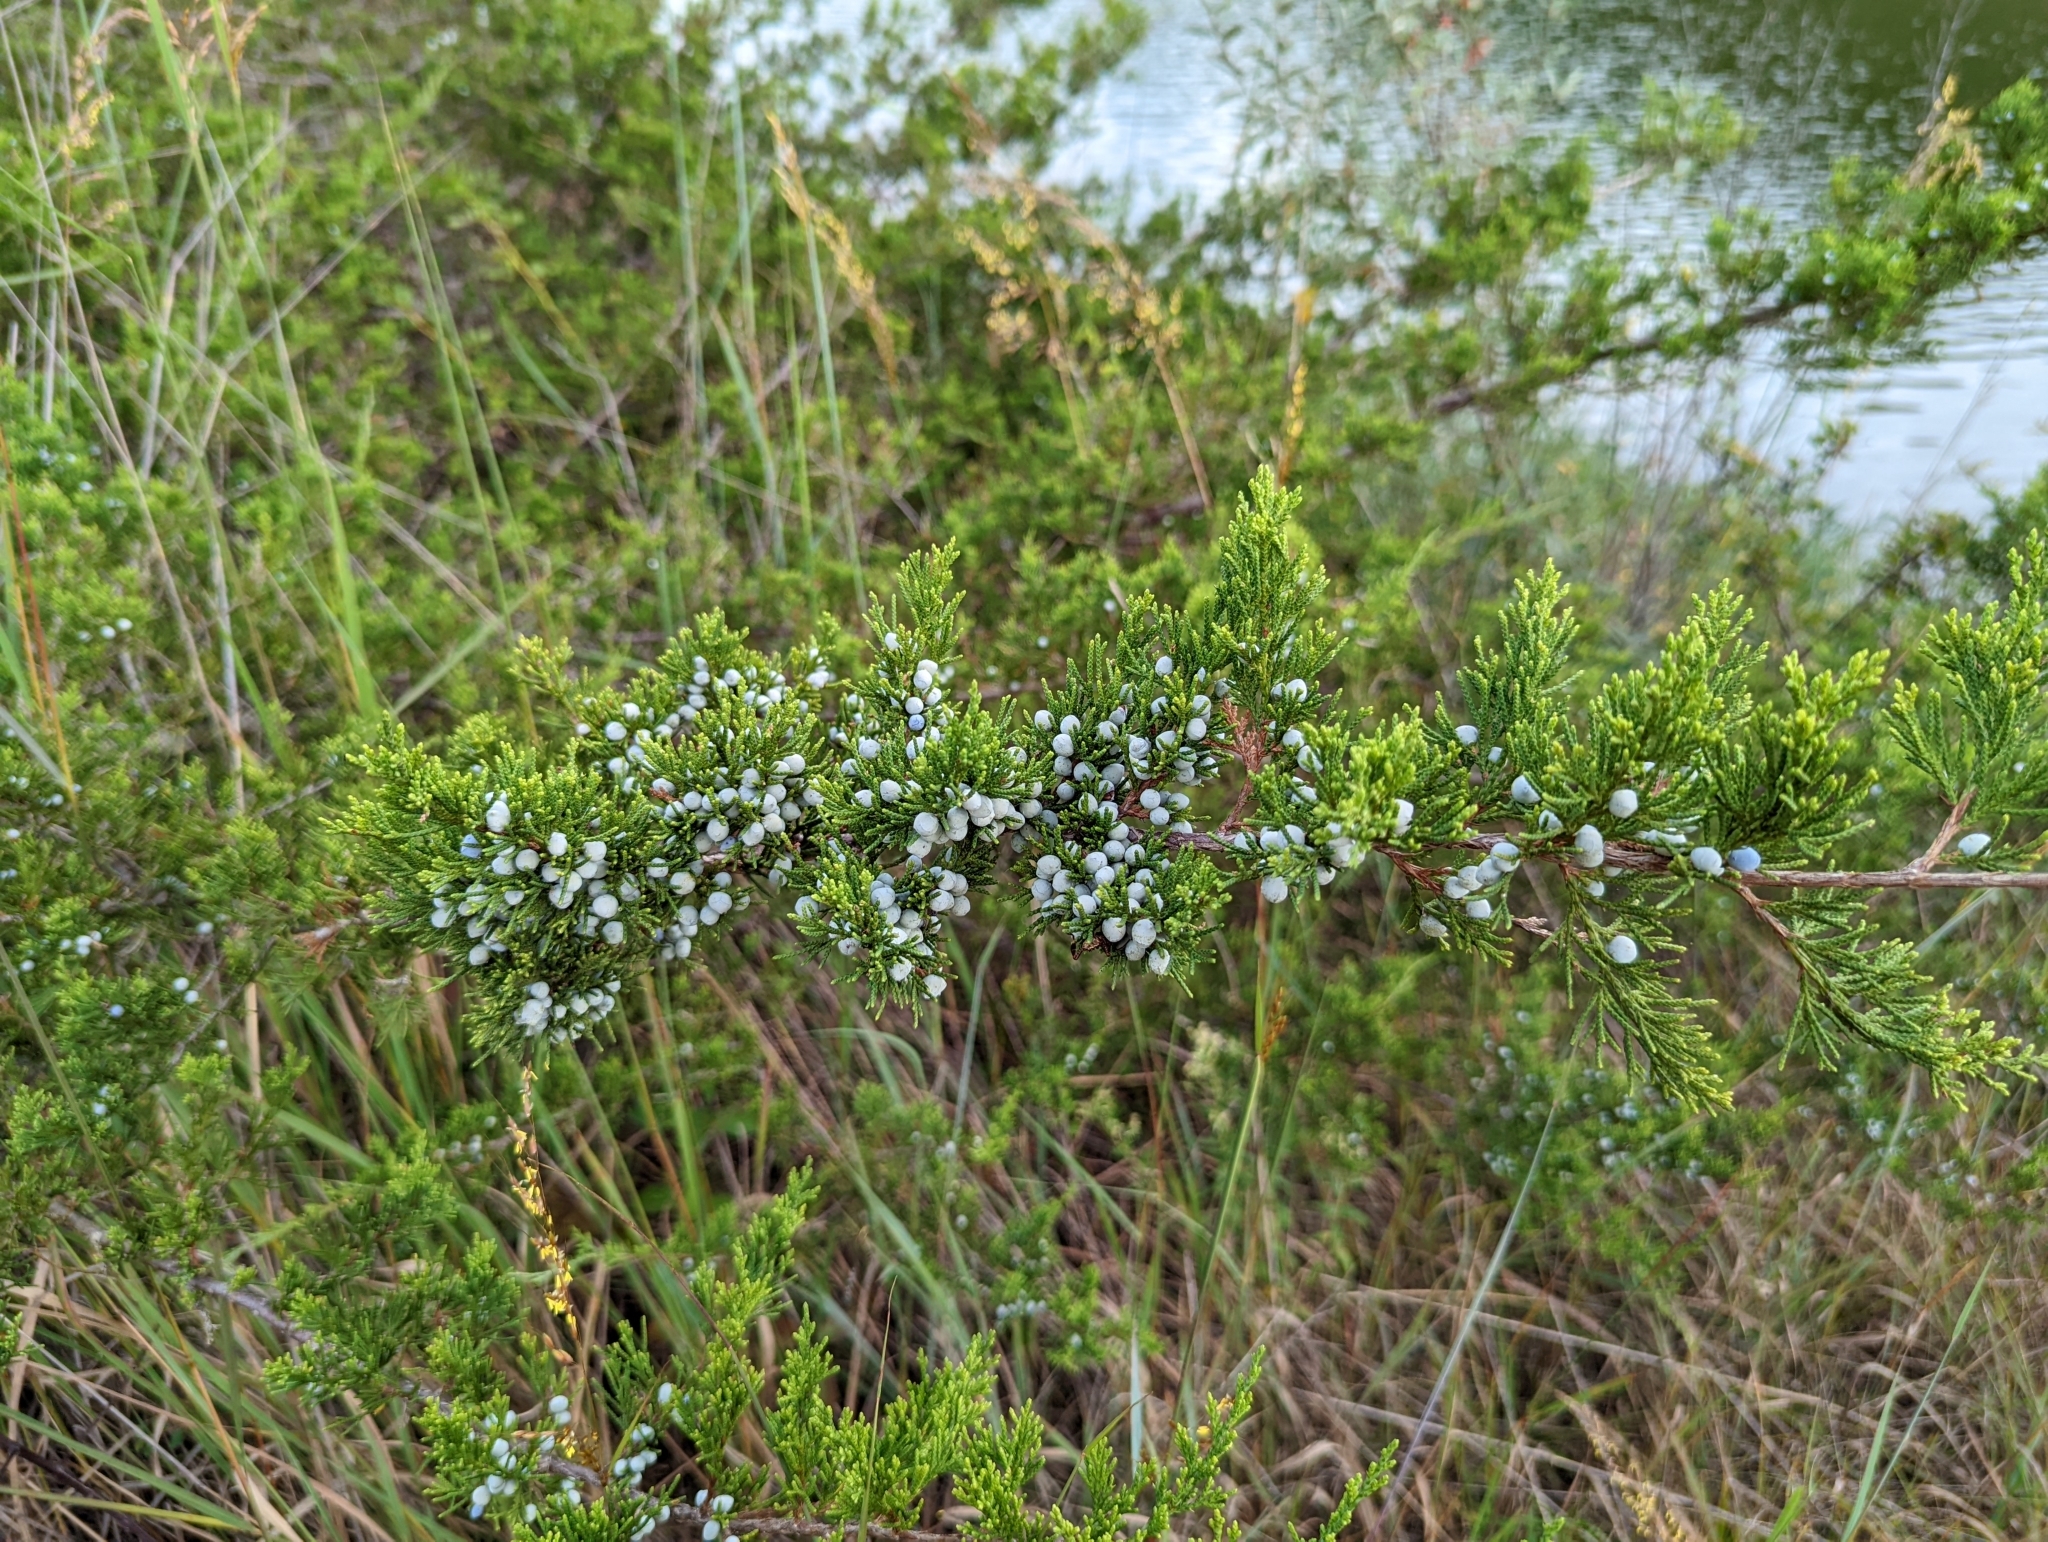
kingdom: Plantae
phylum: Tracheophyta
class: Pinopsida
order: Pinales
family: Cupressaceae
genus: Juniperus
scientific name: Juniperus virginiana
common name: Red juniper
